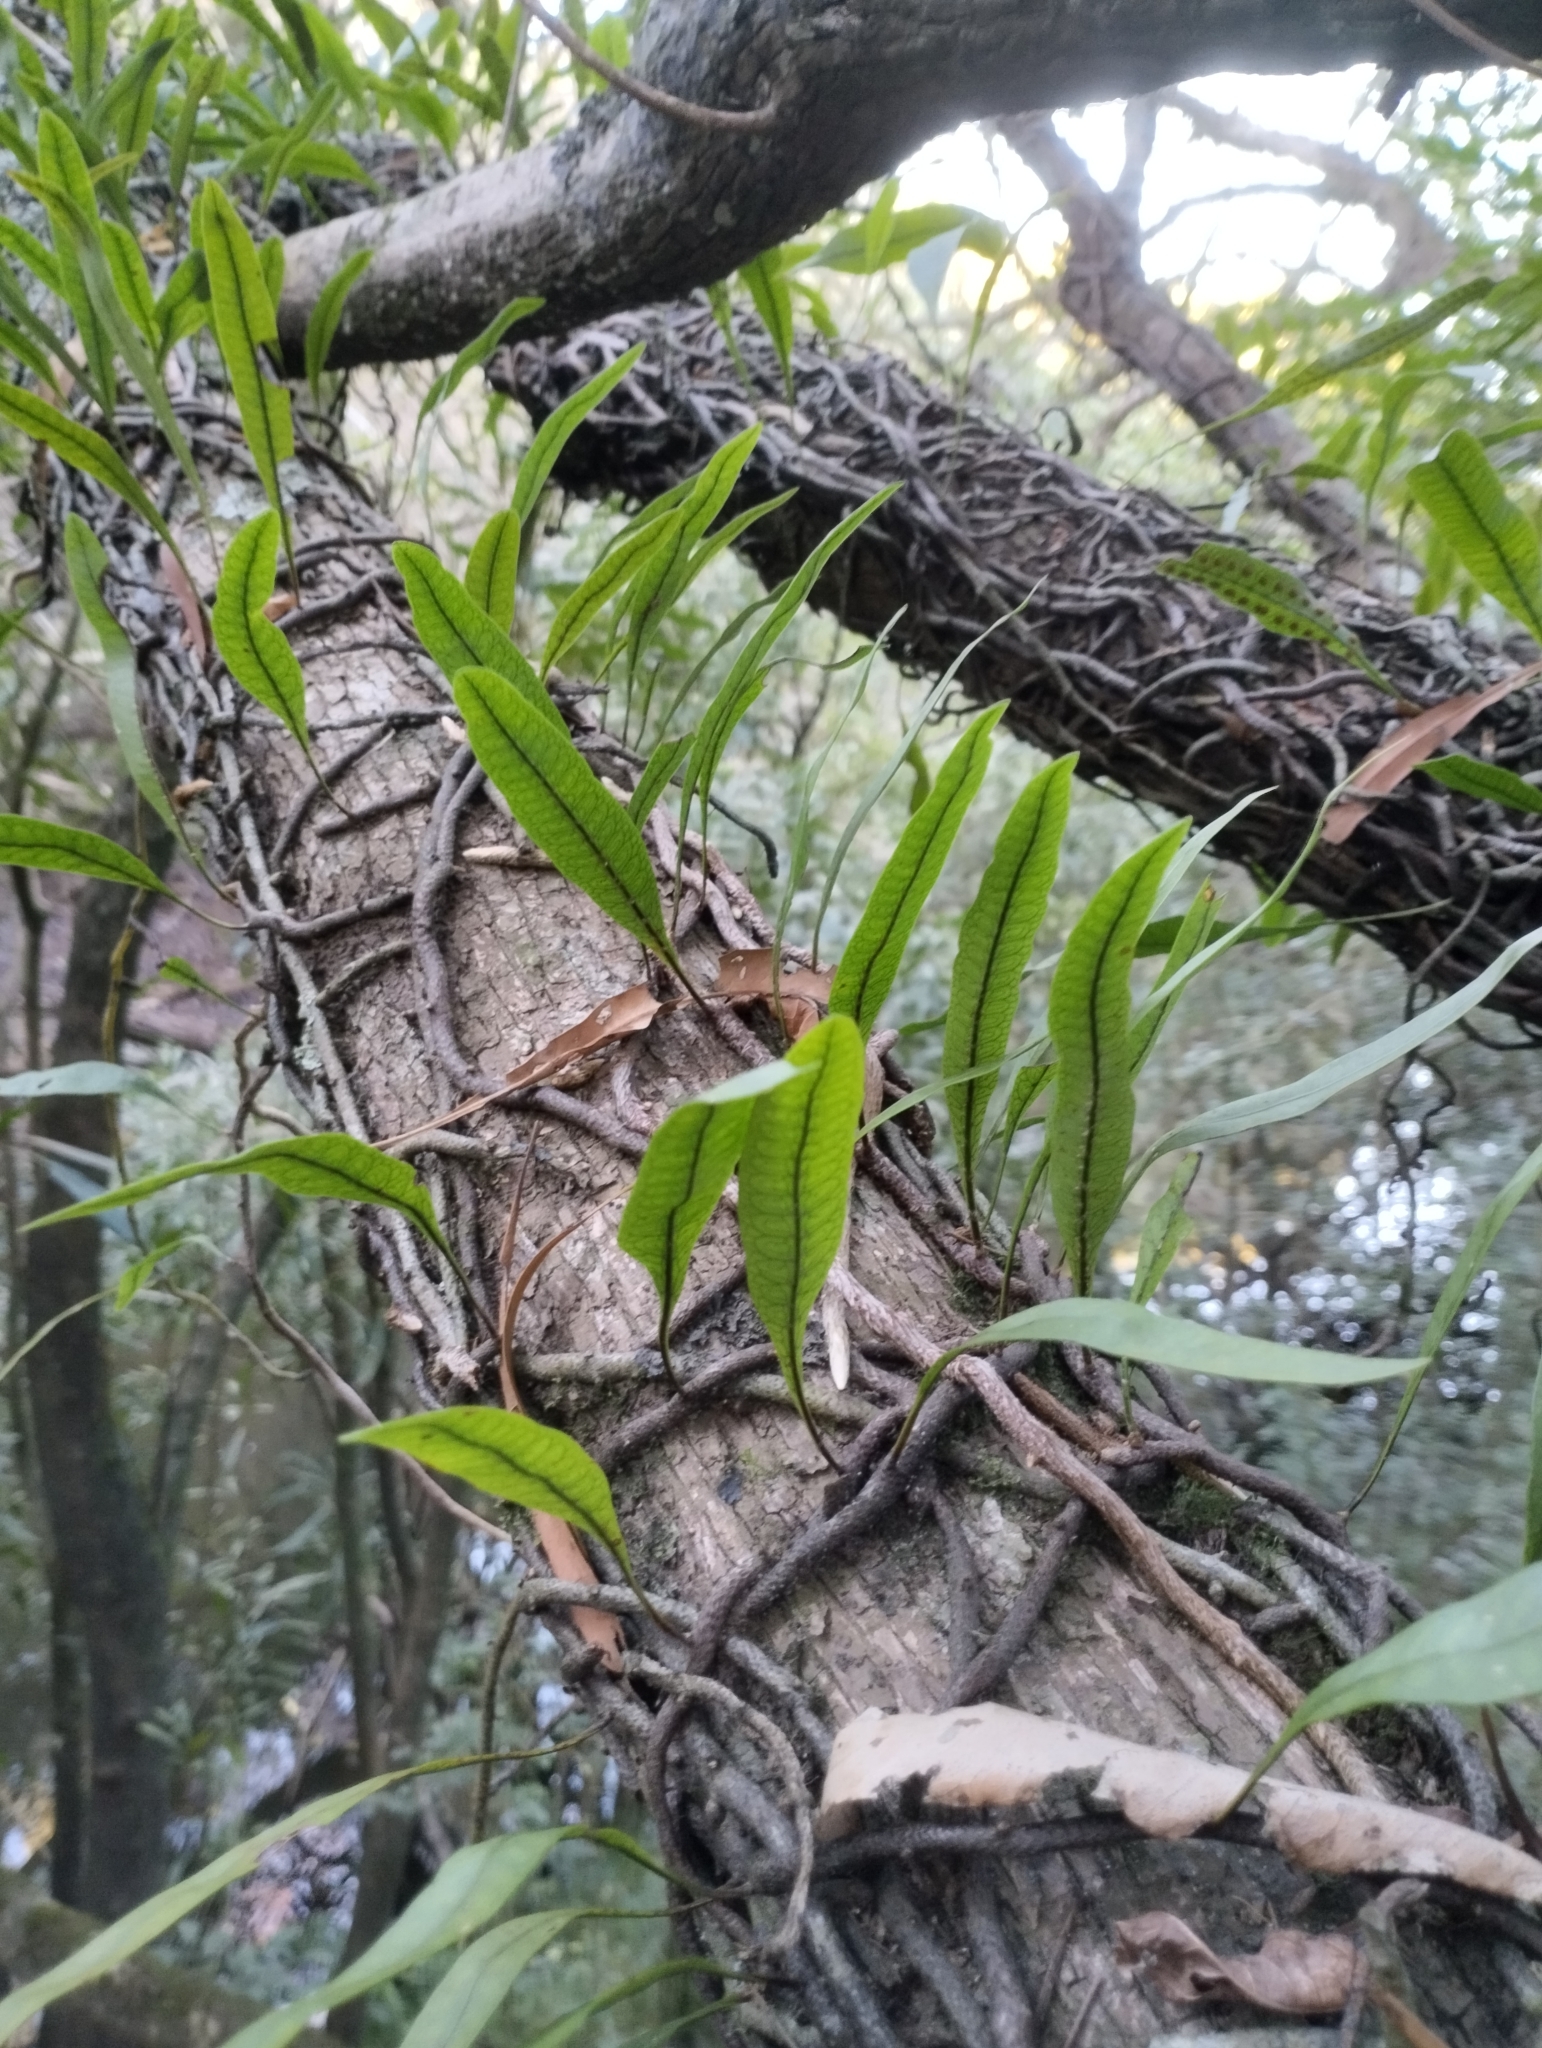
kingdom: Plantae
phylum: Tracheophyta
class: Polypodiopsida
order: Polypodiales
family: Polypodiaceae
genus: Microgramma
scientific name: Microgramma squamulosa
